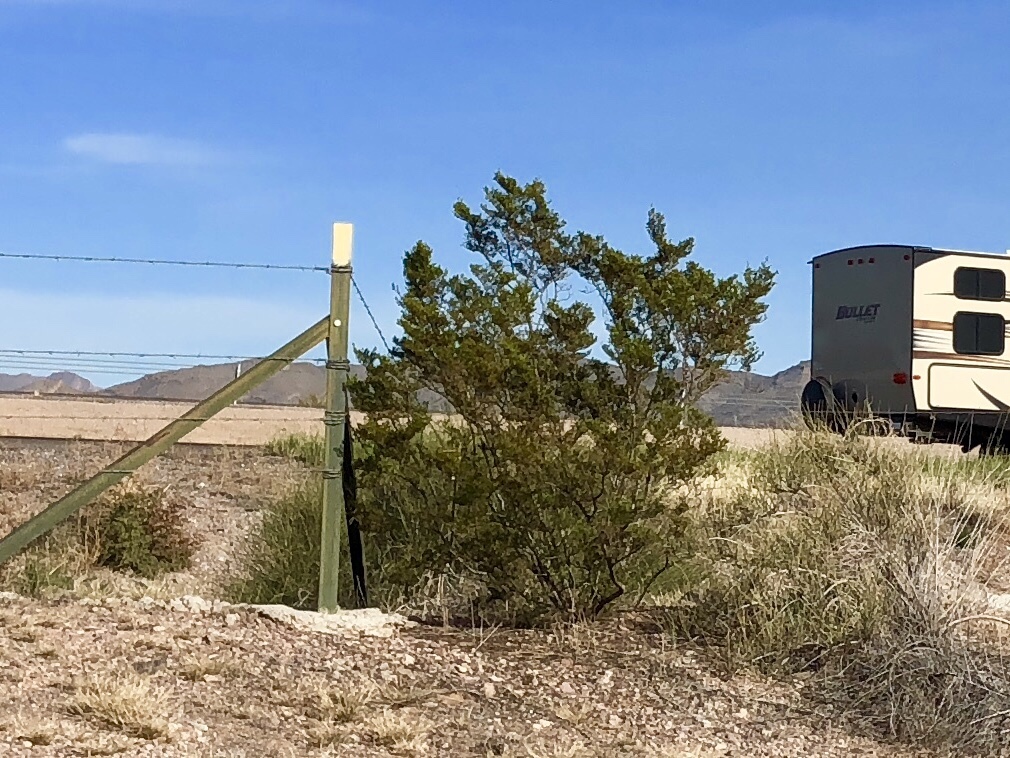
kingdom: Plantae
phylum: Tracheophyta
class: Magnoliopsida
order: Zygophyllales
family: Zygophyllaceae
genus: Larrea
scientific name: Larrea tridentata
